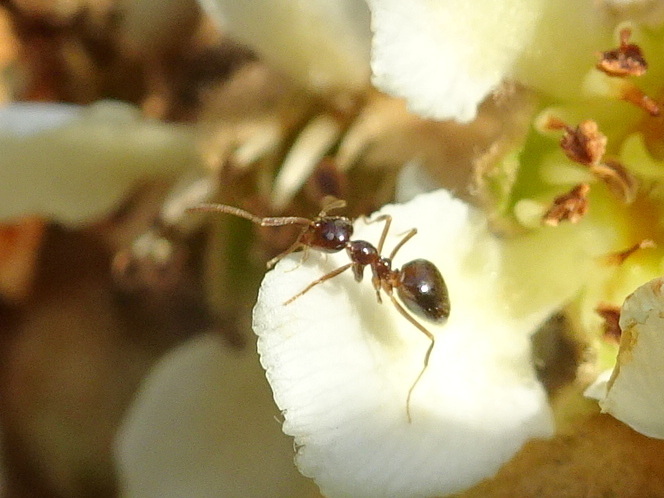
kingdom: Animalia
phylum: Arthropoda
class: Insecta
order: Hymenoptera
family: Formicidae
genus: Prenolepis
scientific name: Prenolepis imparis
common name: Small honey ant
